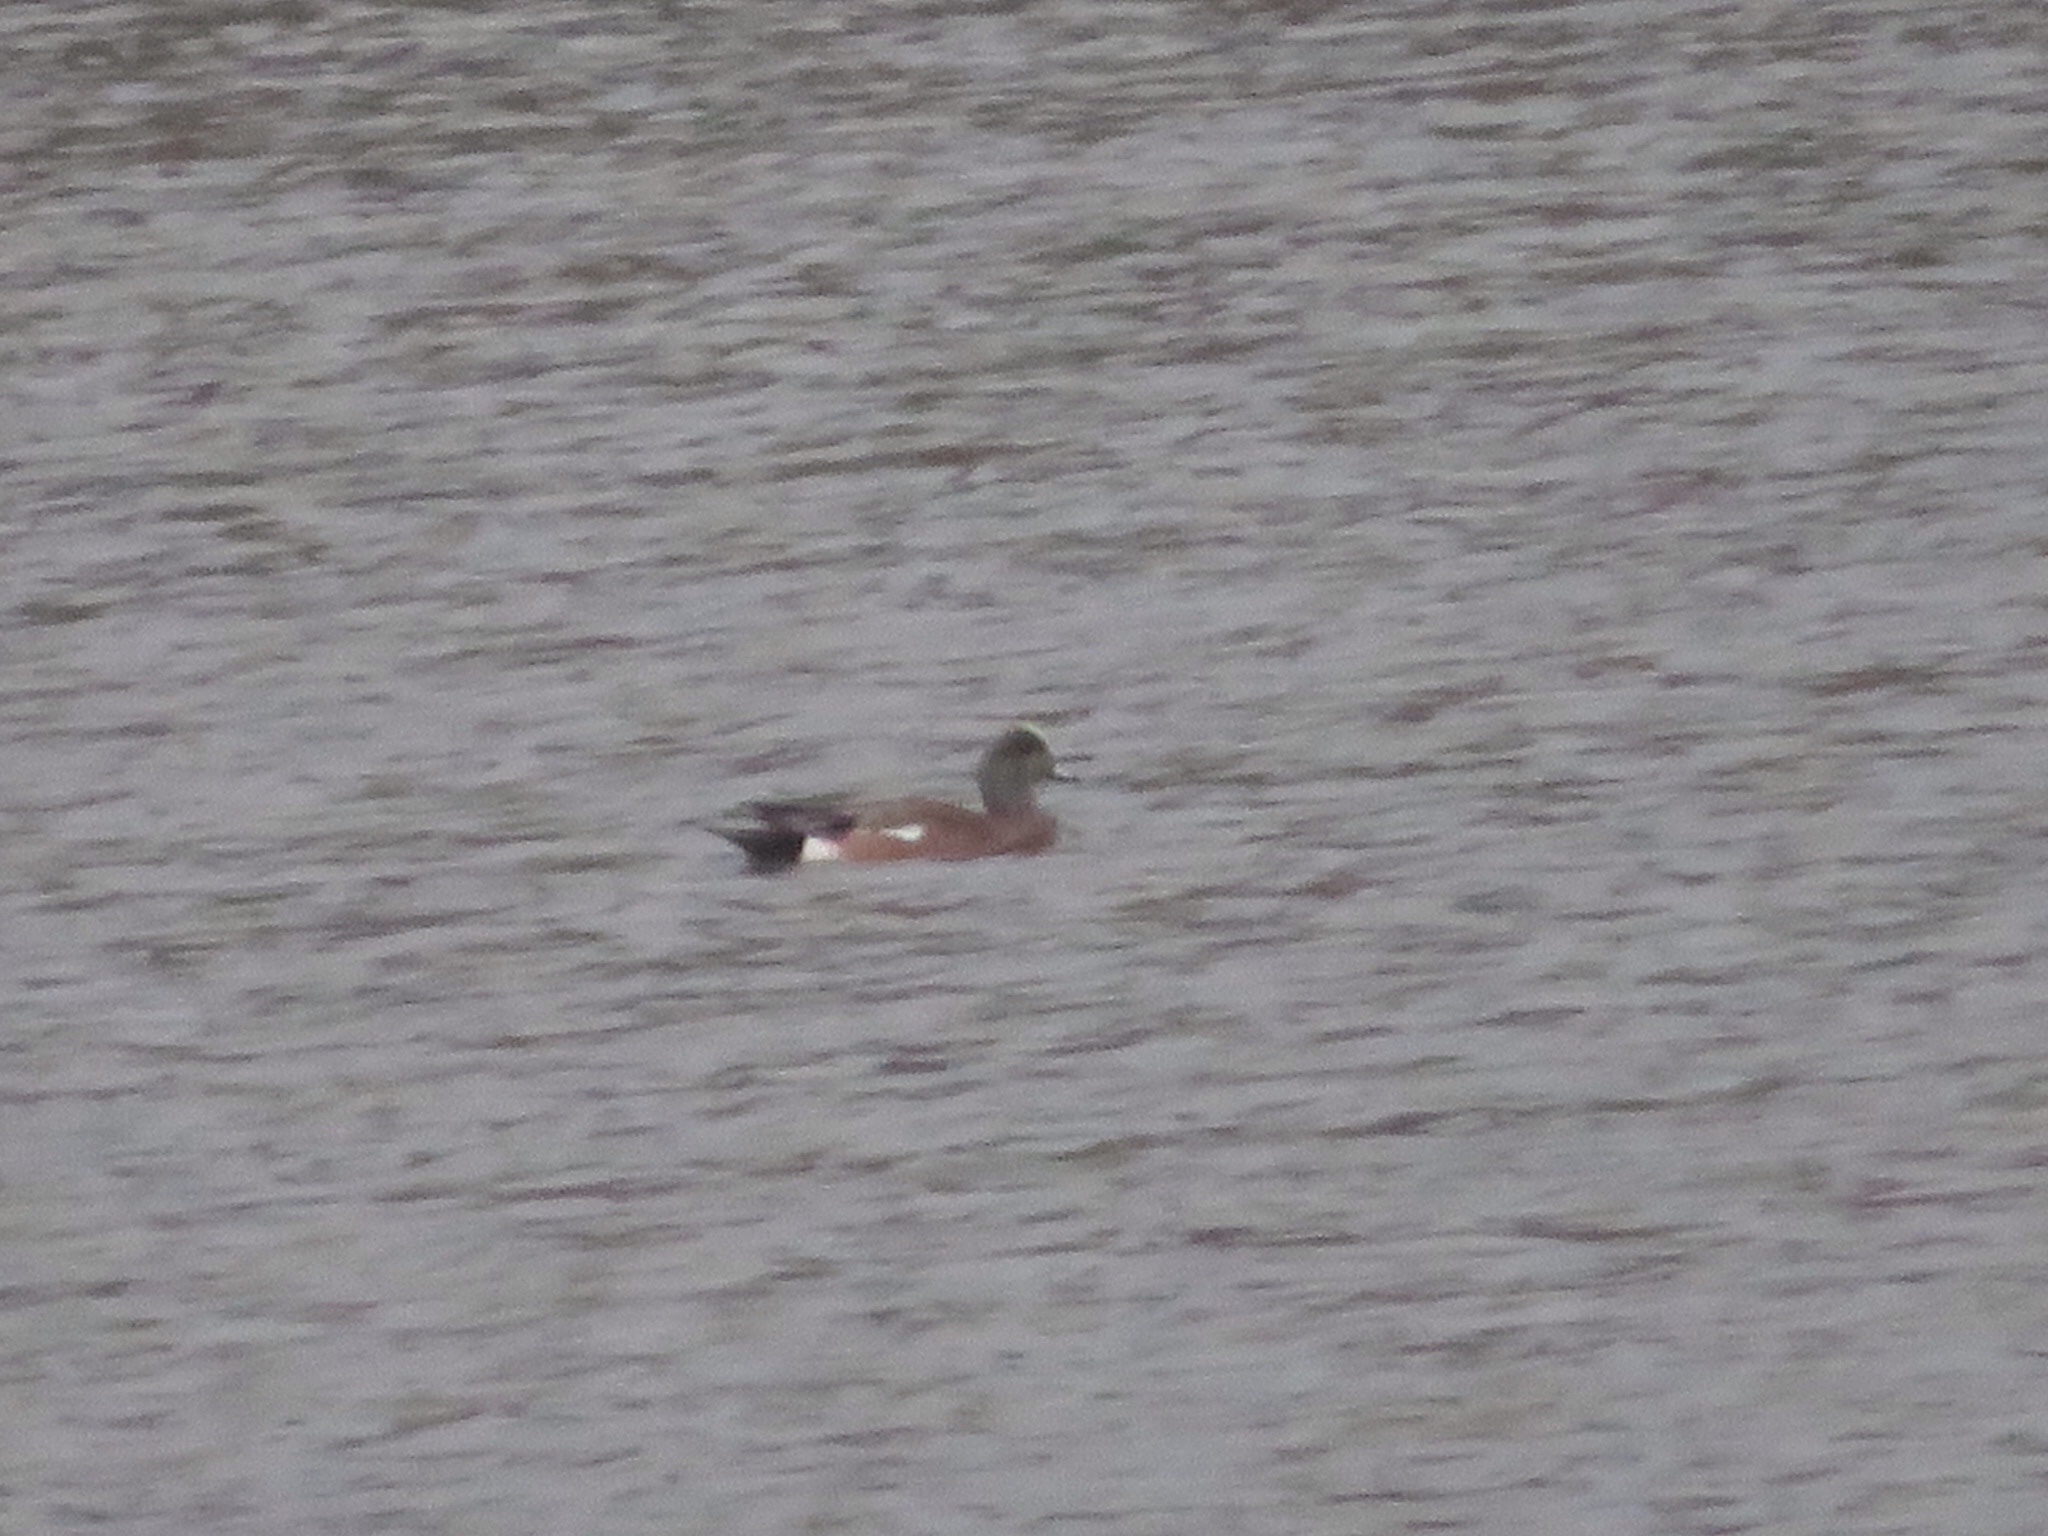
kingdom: Animalia
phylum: Chordata
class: Aves
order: Anseriformes
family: Anatidae
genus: Mareca
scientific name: Mareca americana
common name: American wigeon
